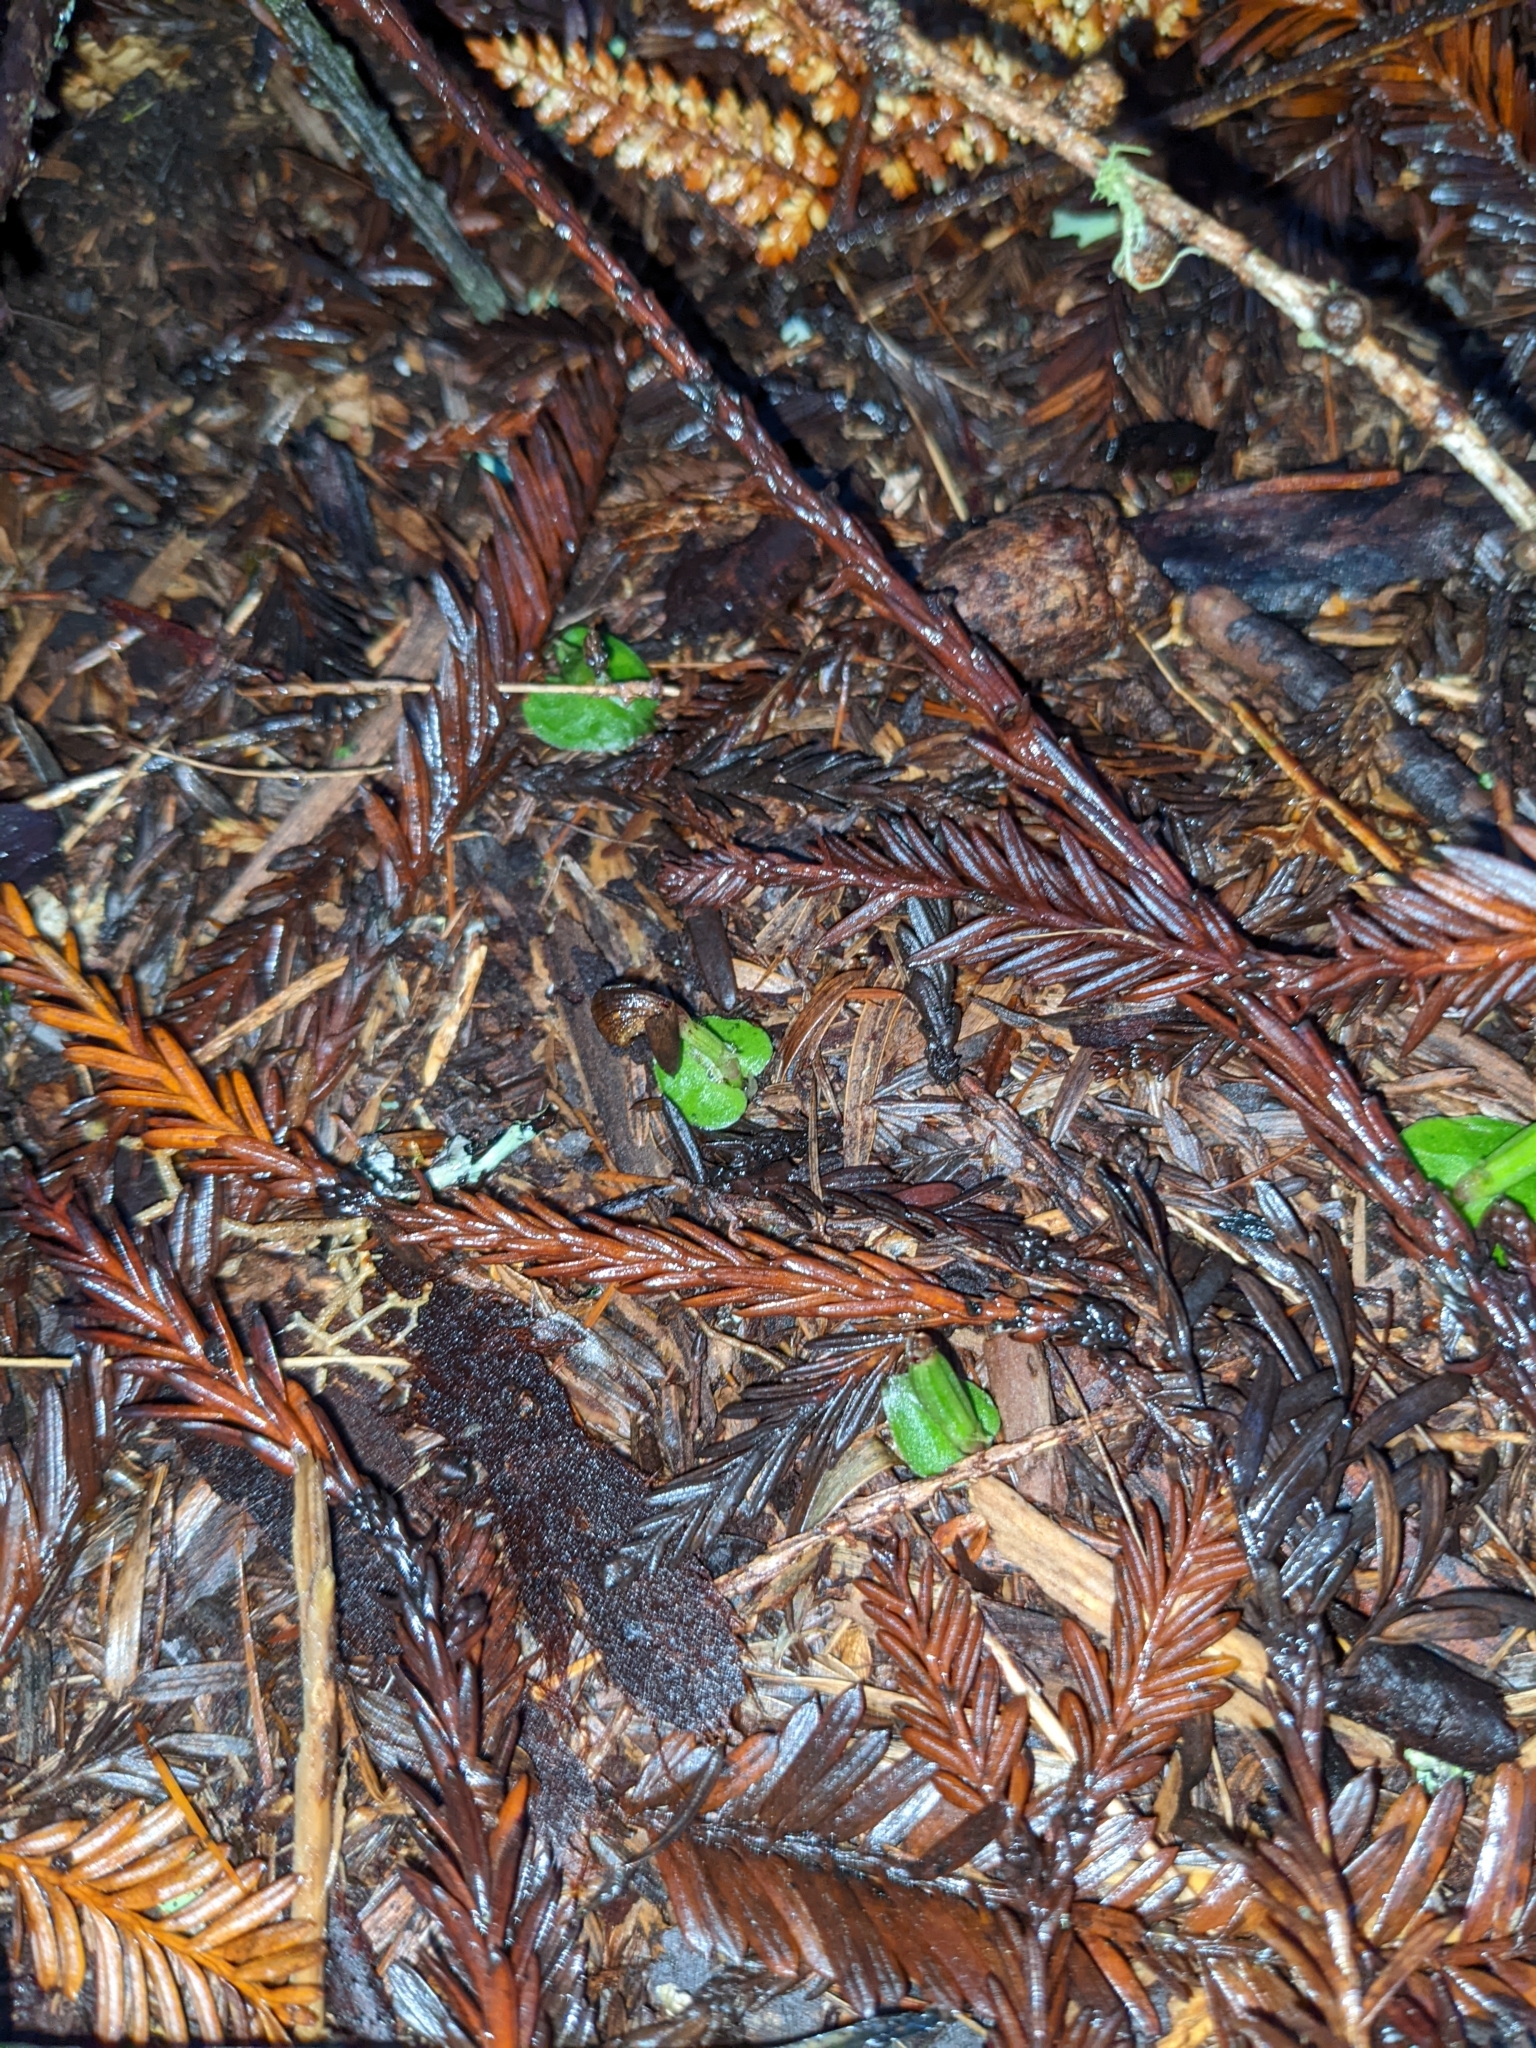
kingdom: Plantae
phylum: Tracheophyta
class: Liliopsida
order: Asparagales
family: Orchidaceae
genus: Corybas
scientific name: Corybas cheesemanii
